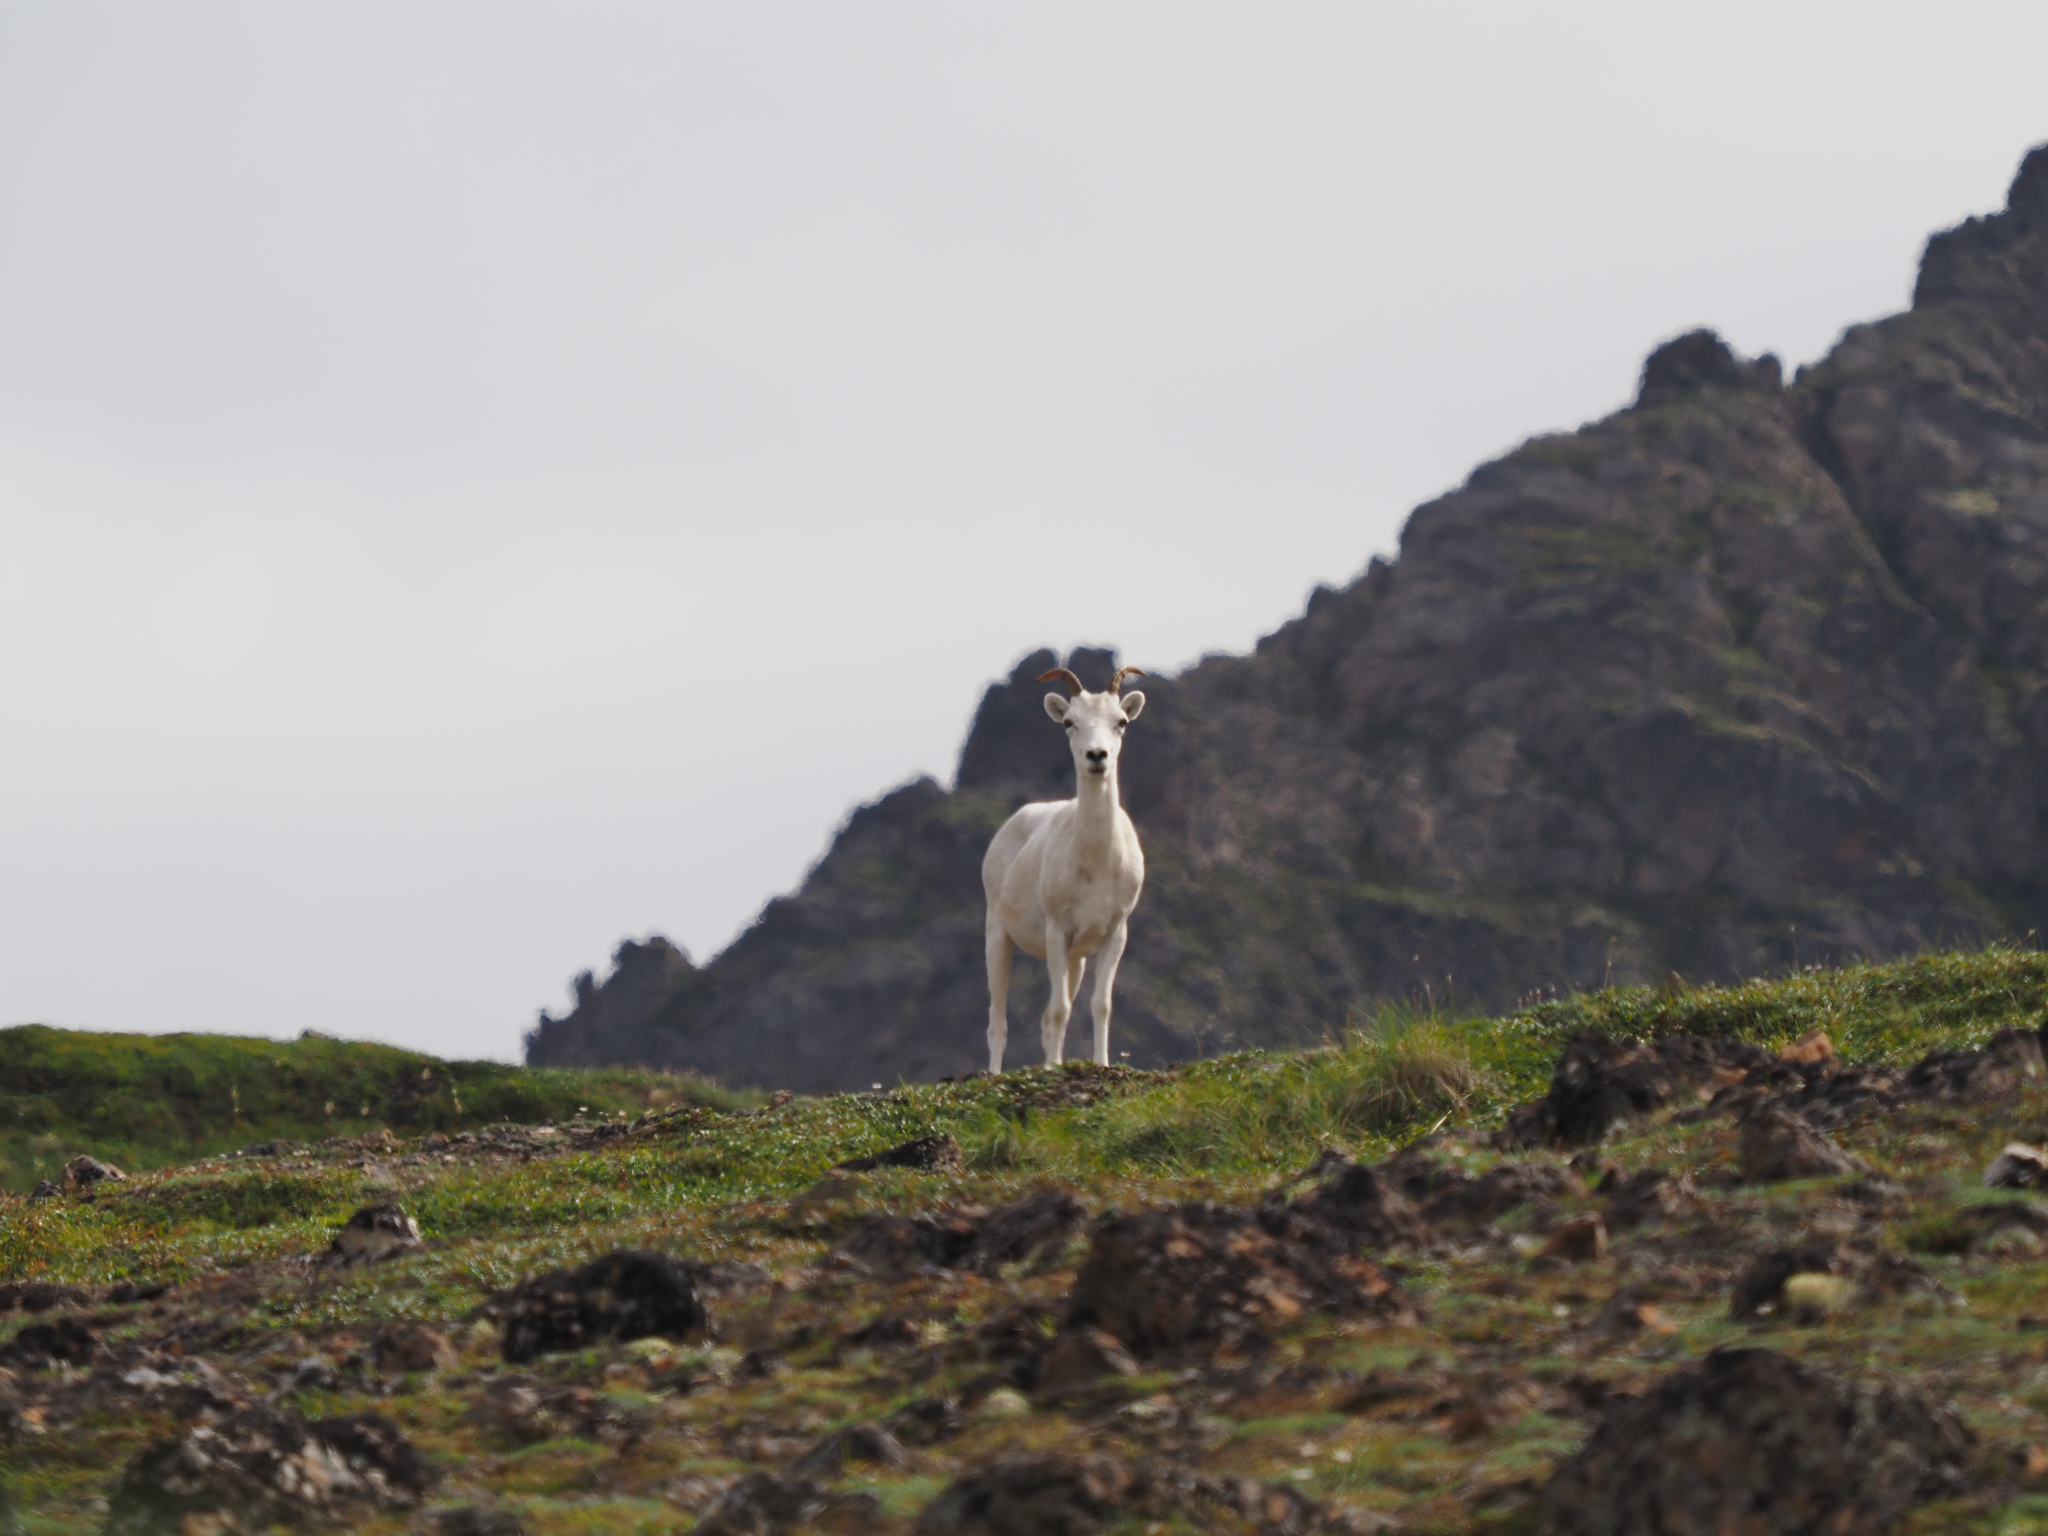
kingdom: Animalia
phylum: Chordata
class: Mammalia
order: Artiodactyla
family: Bovidae
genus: Ovis
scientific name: Ovis dalli
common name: Dall's sheep
